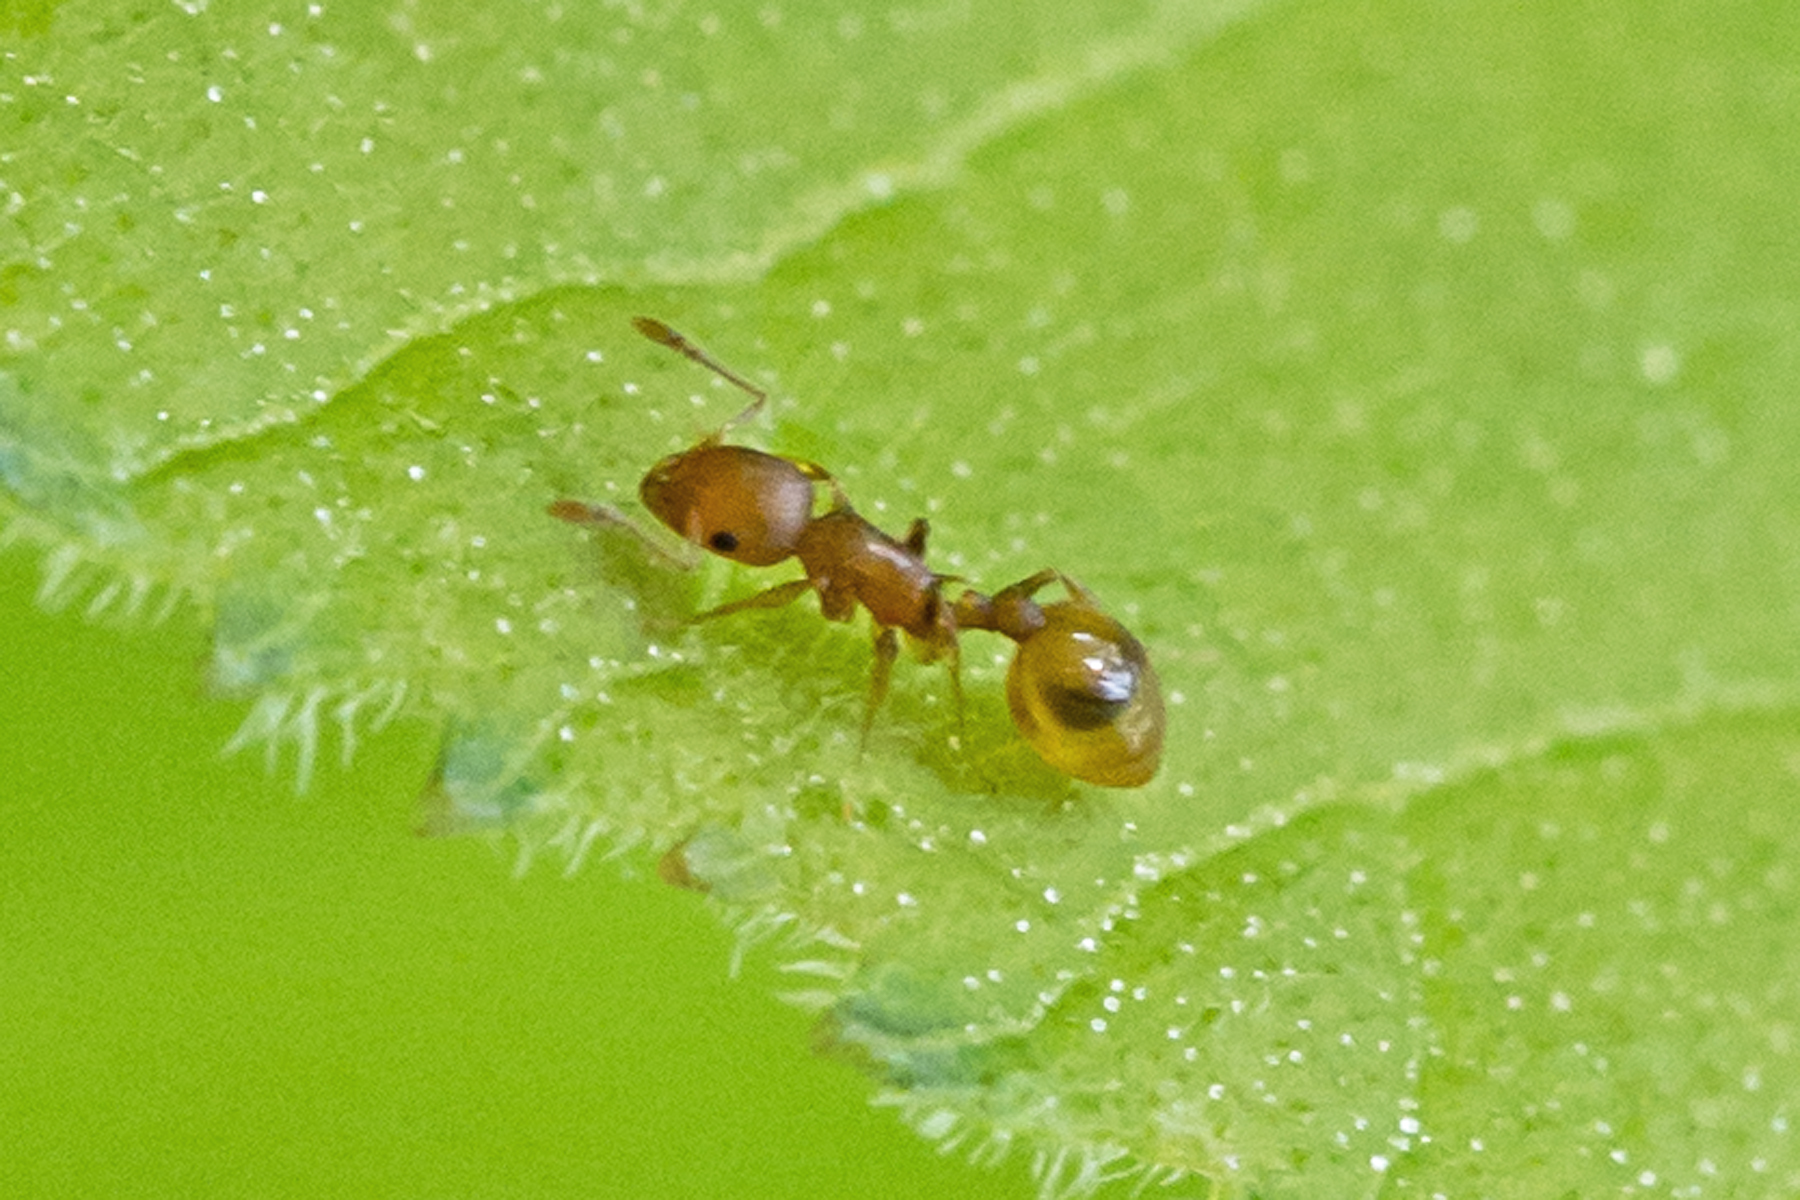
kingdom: Animalia
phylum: Arthropoda
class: Insecta
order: Hymenoptera
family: Formicidae
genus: Temnothorax
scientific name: Temnothorax curvispinosus
